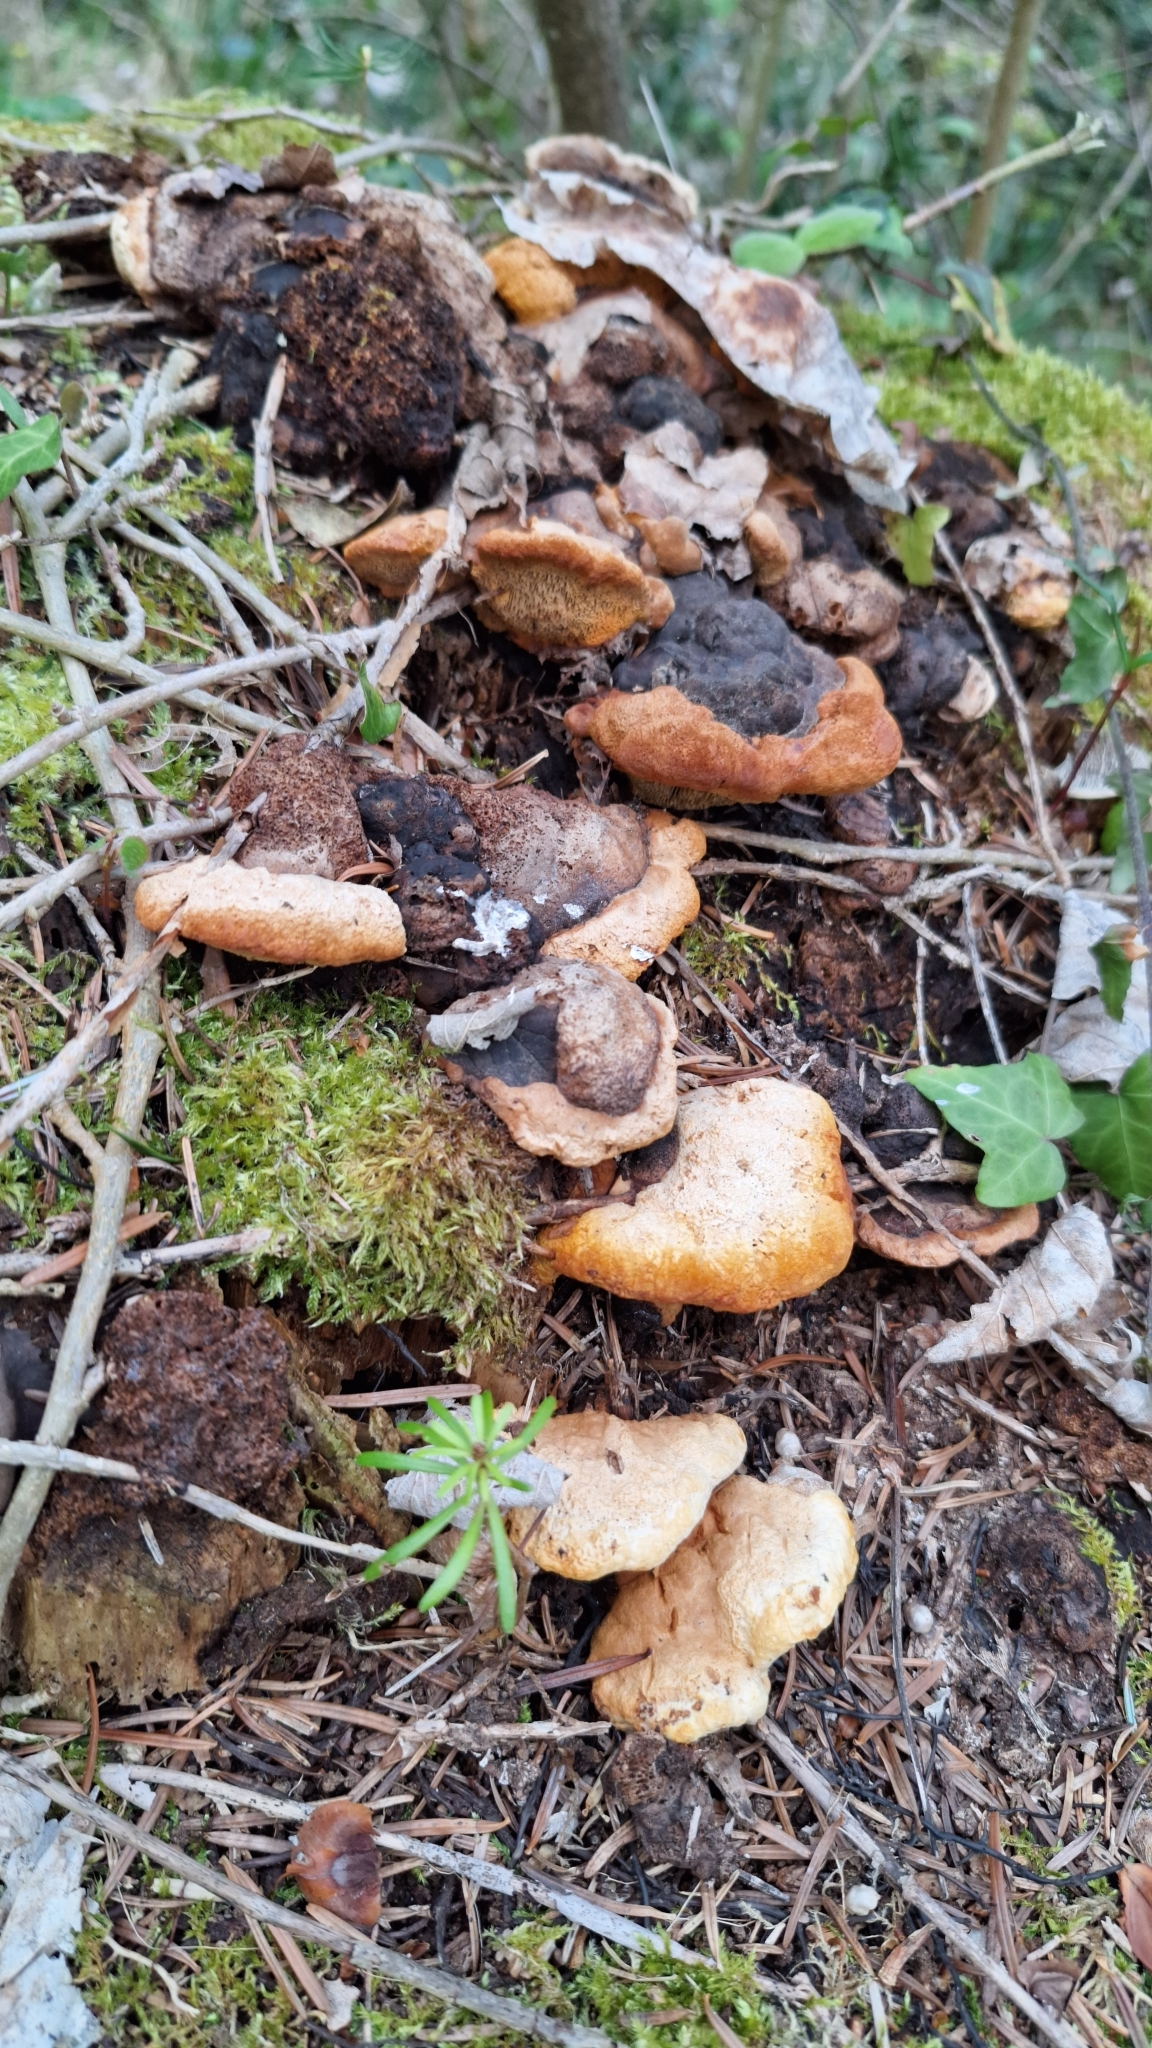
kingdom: Fungi
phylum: Basidiomycota
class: Agaricomycetes
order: Gloeophyllales
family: Gloeophyllaceae
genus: Gloeophyllum
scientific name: Gloeophyllum odoratum
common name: Anise mazegill
